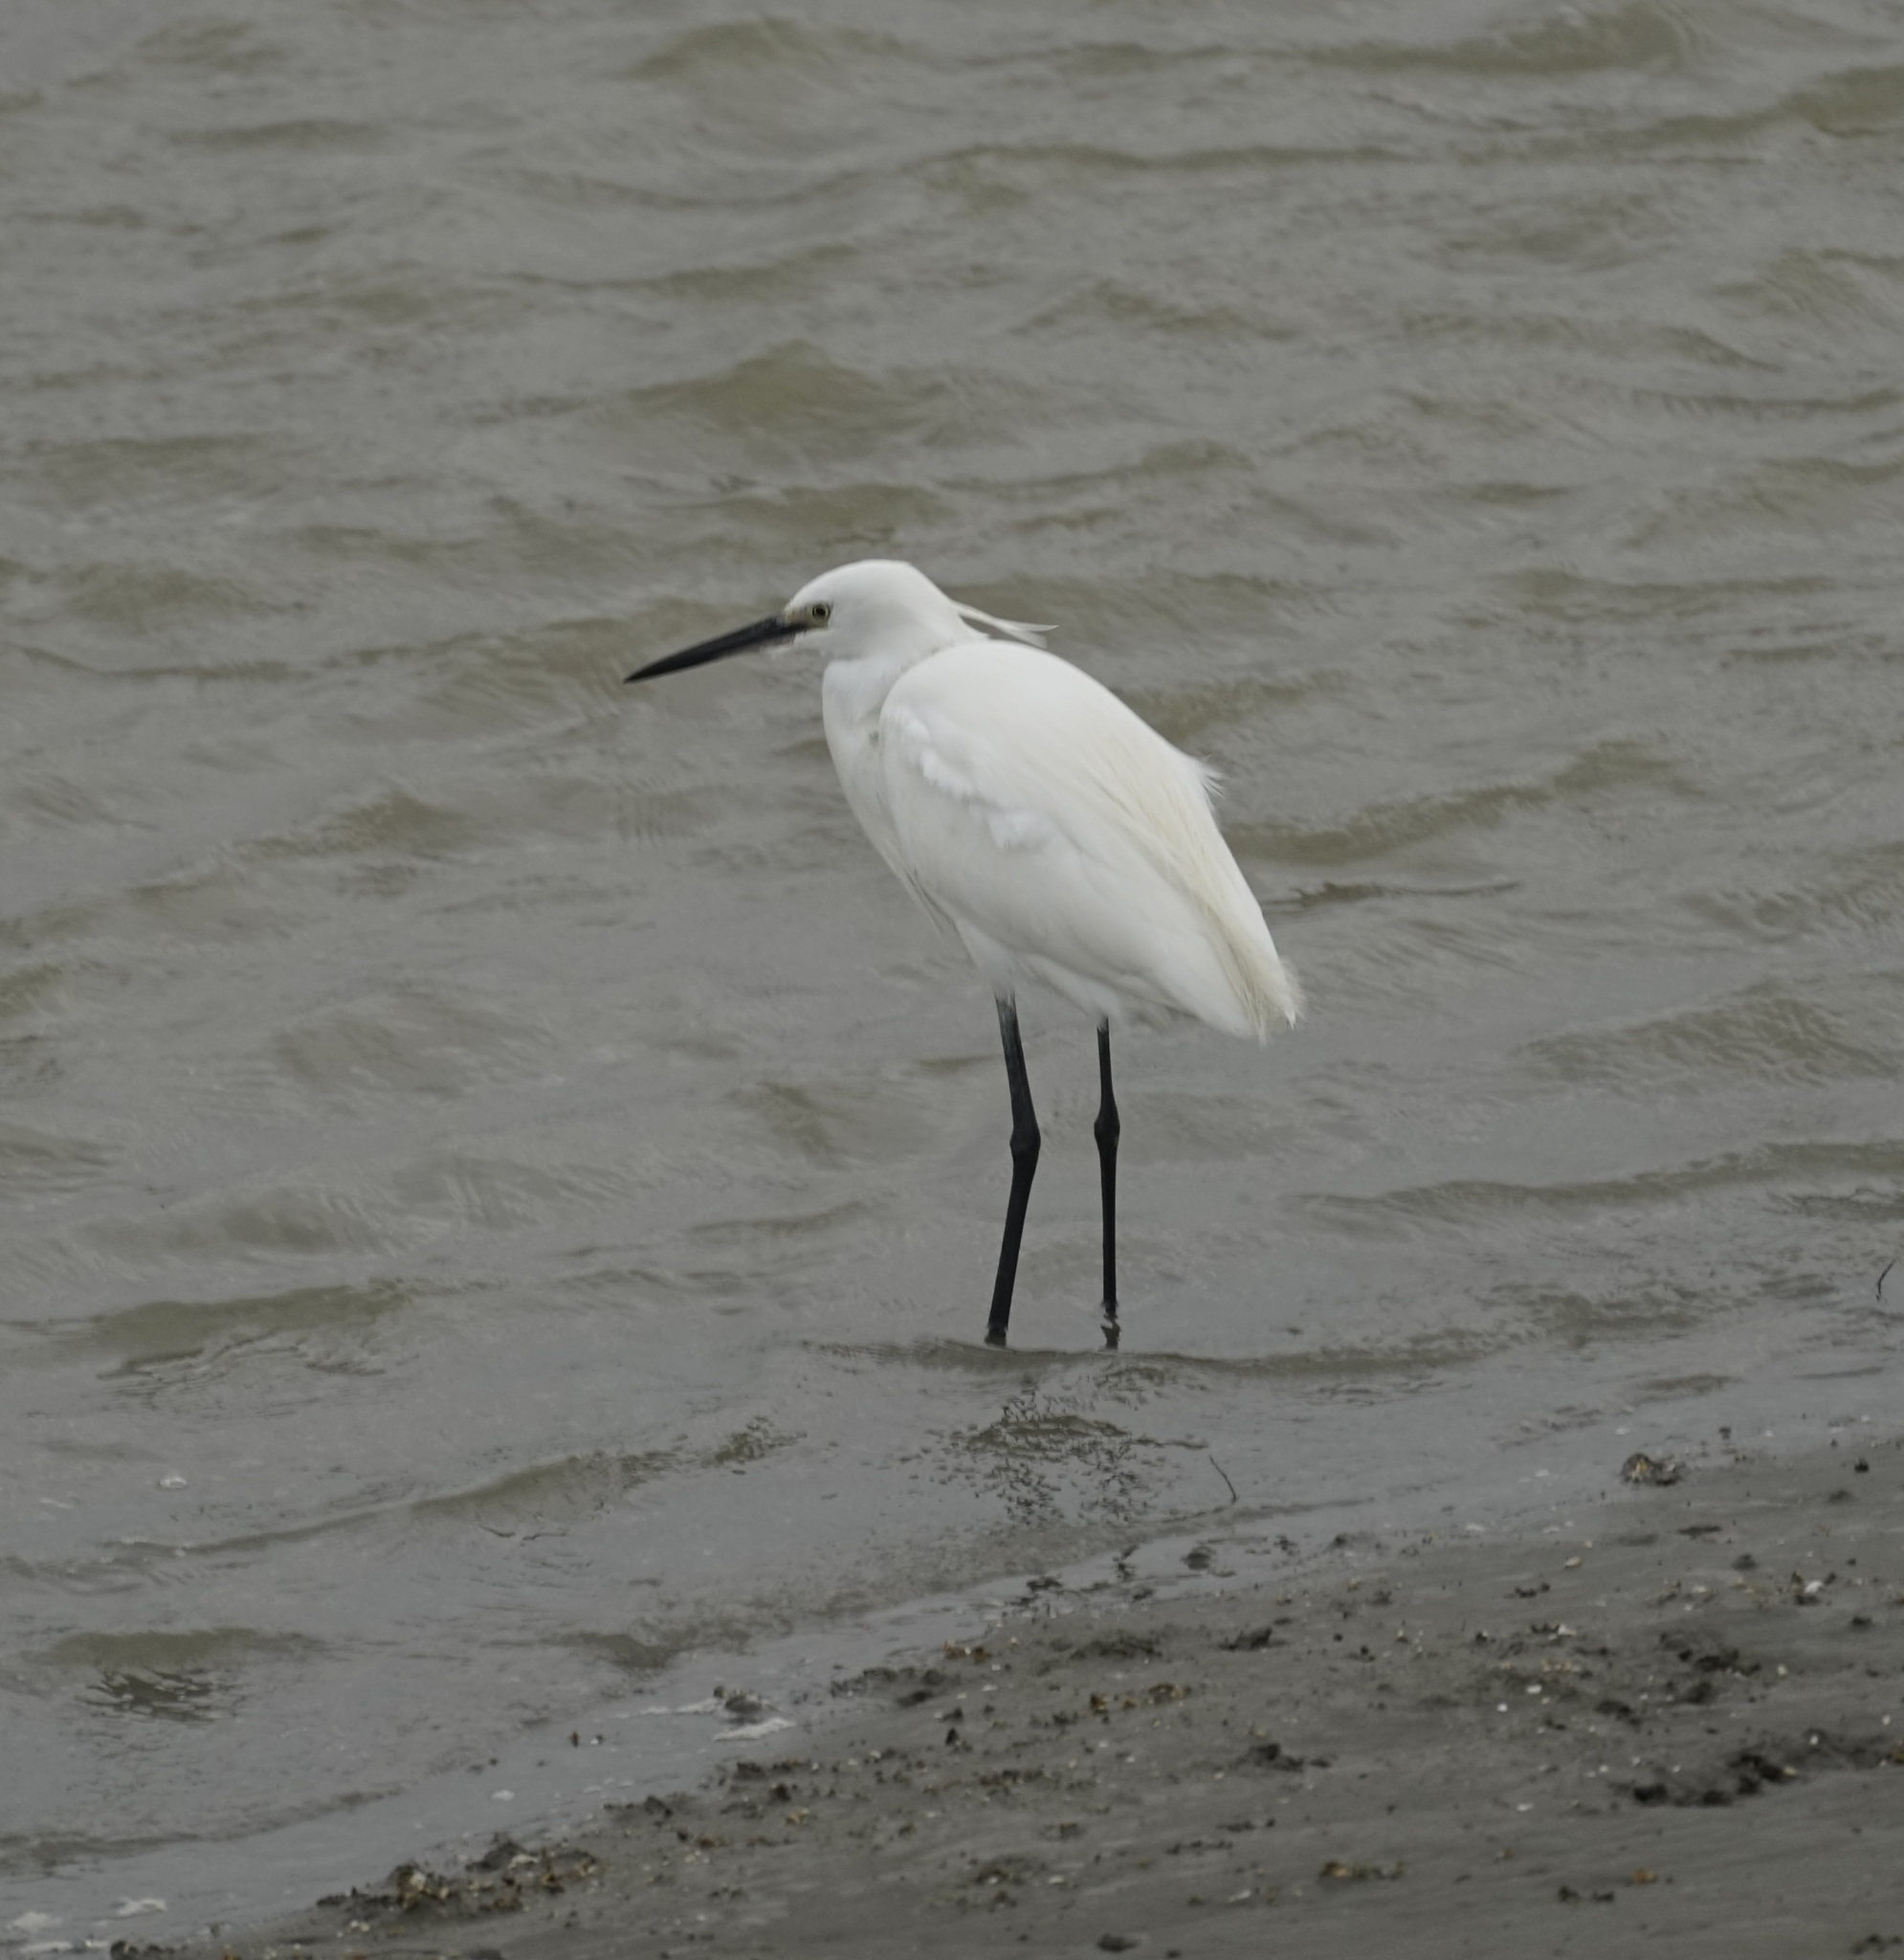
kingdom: Animalia
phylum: Chordata
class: Aves
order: Pelecaniformes
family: Ardeidae
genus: Egretta
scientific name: Egretta garzetta
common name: Little egret
